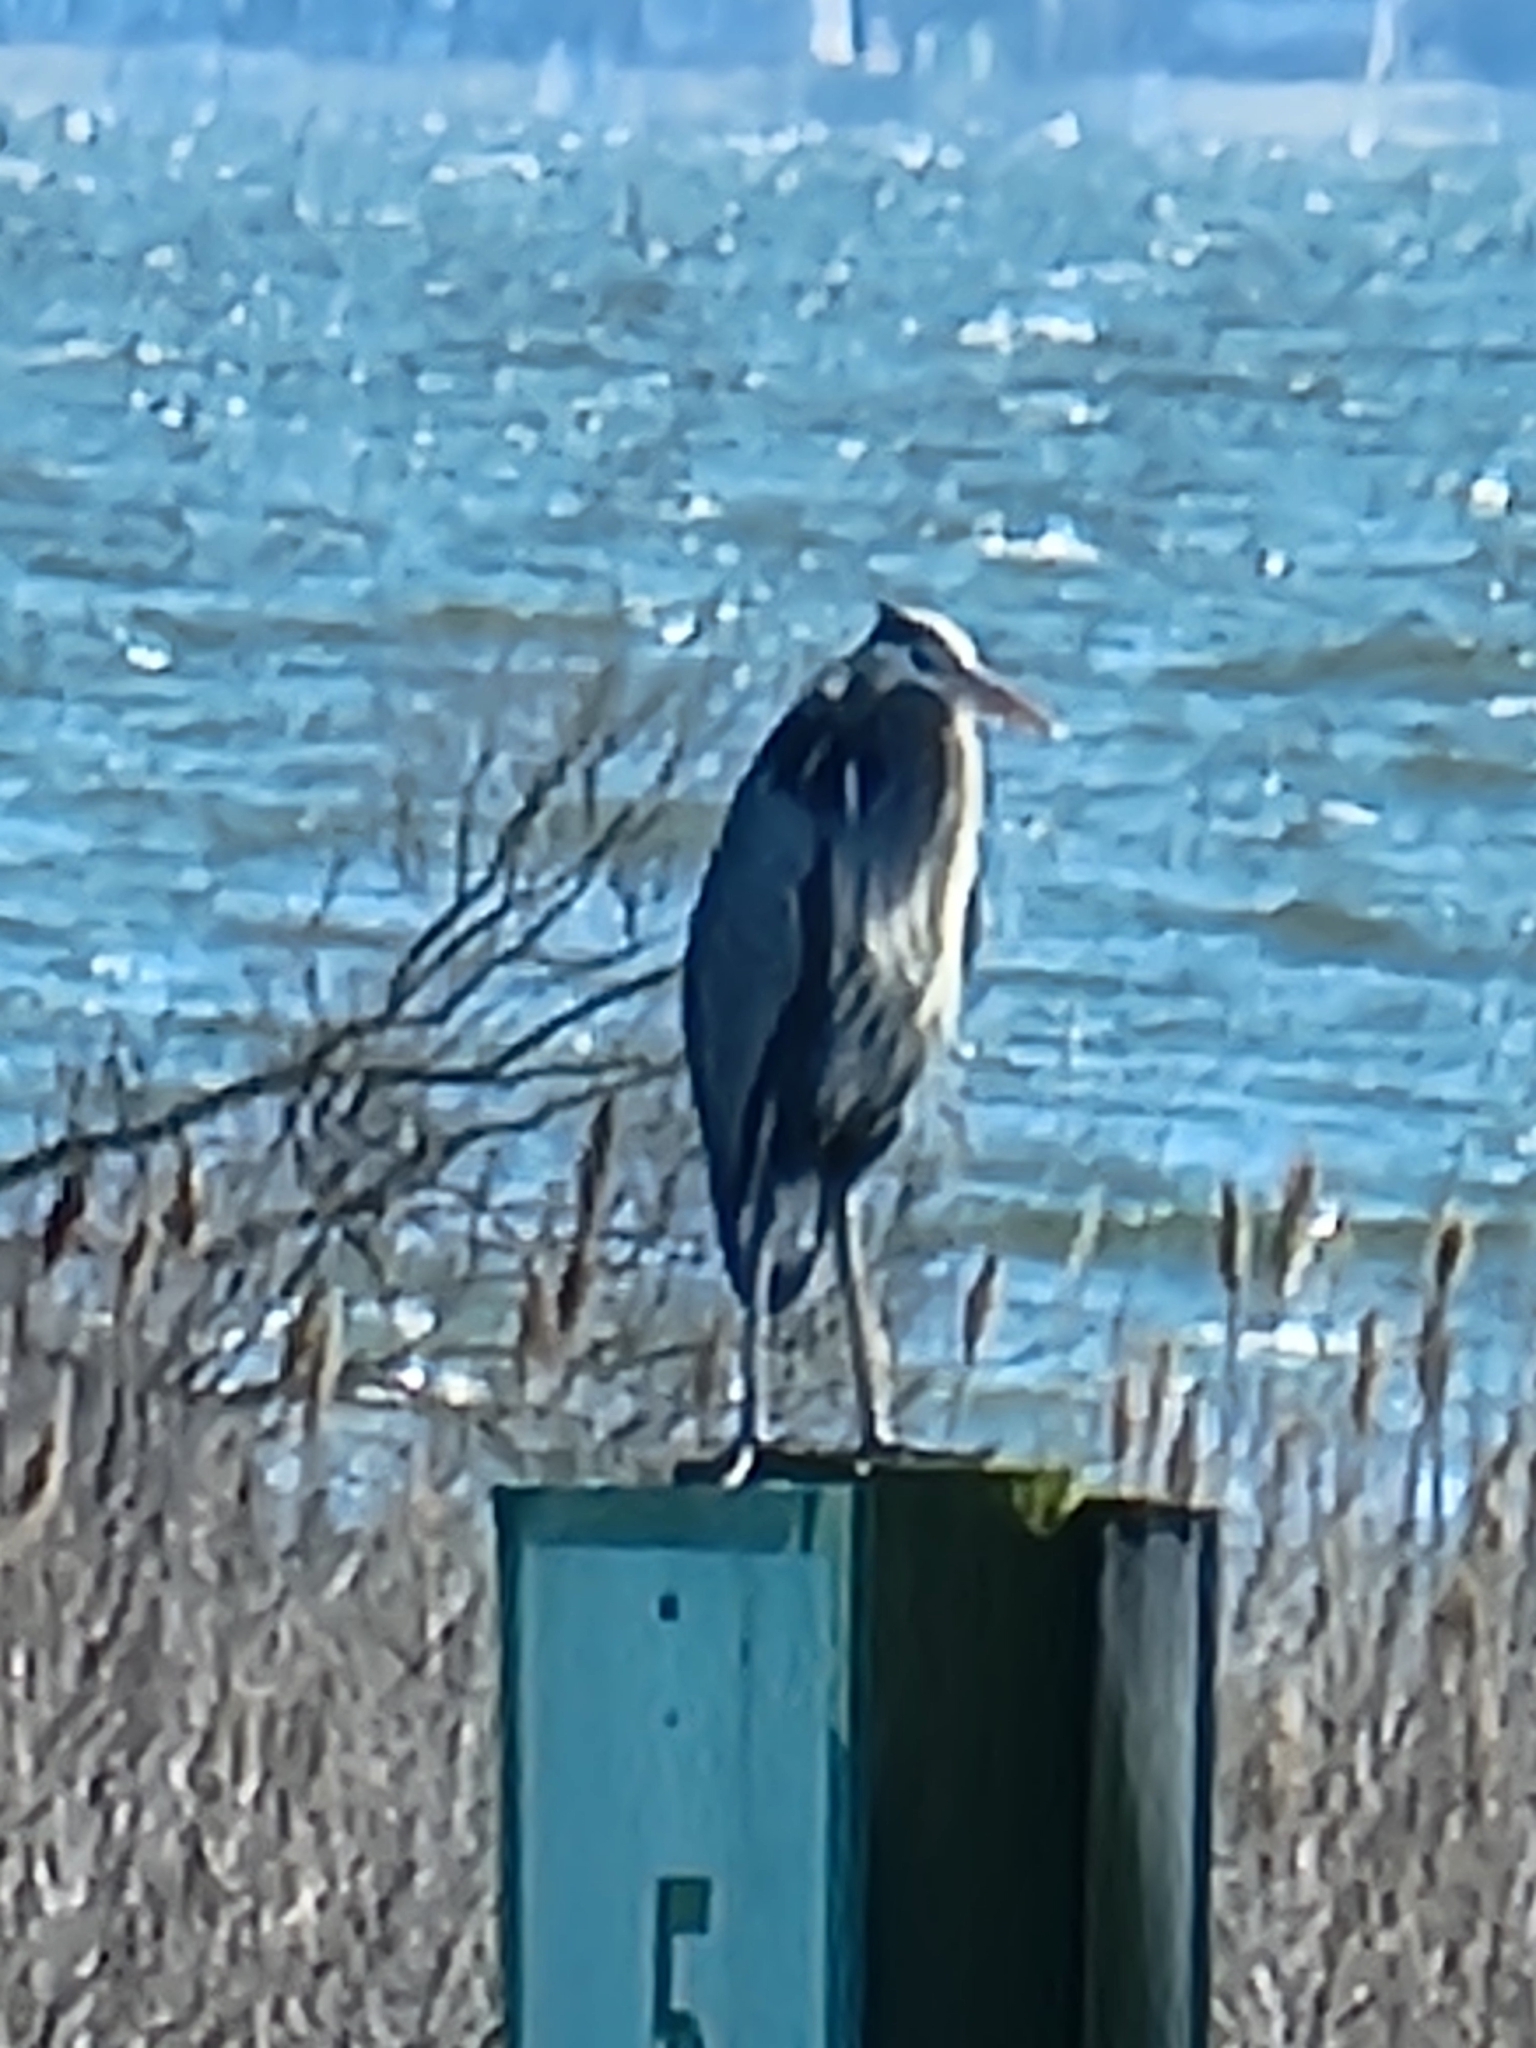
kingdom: Animalia
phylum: Chordata
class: Aves
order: Pelecaniformes
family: Ardeidae
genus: Ardea
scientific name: Ardea herodias
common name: Great blue heron
